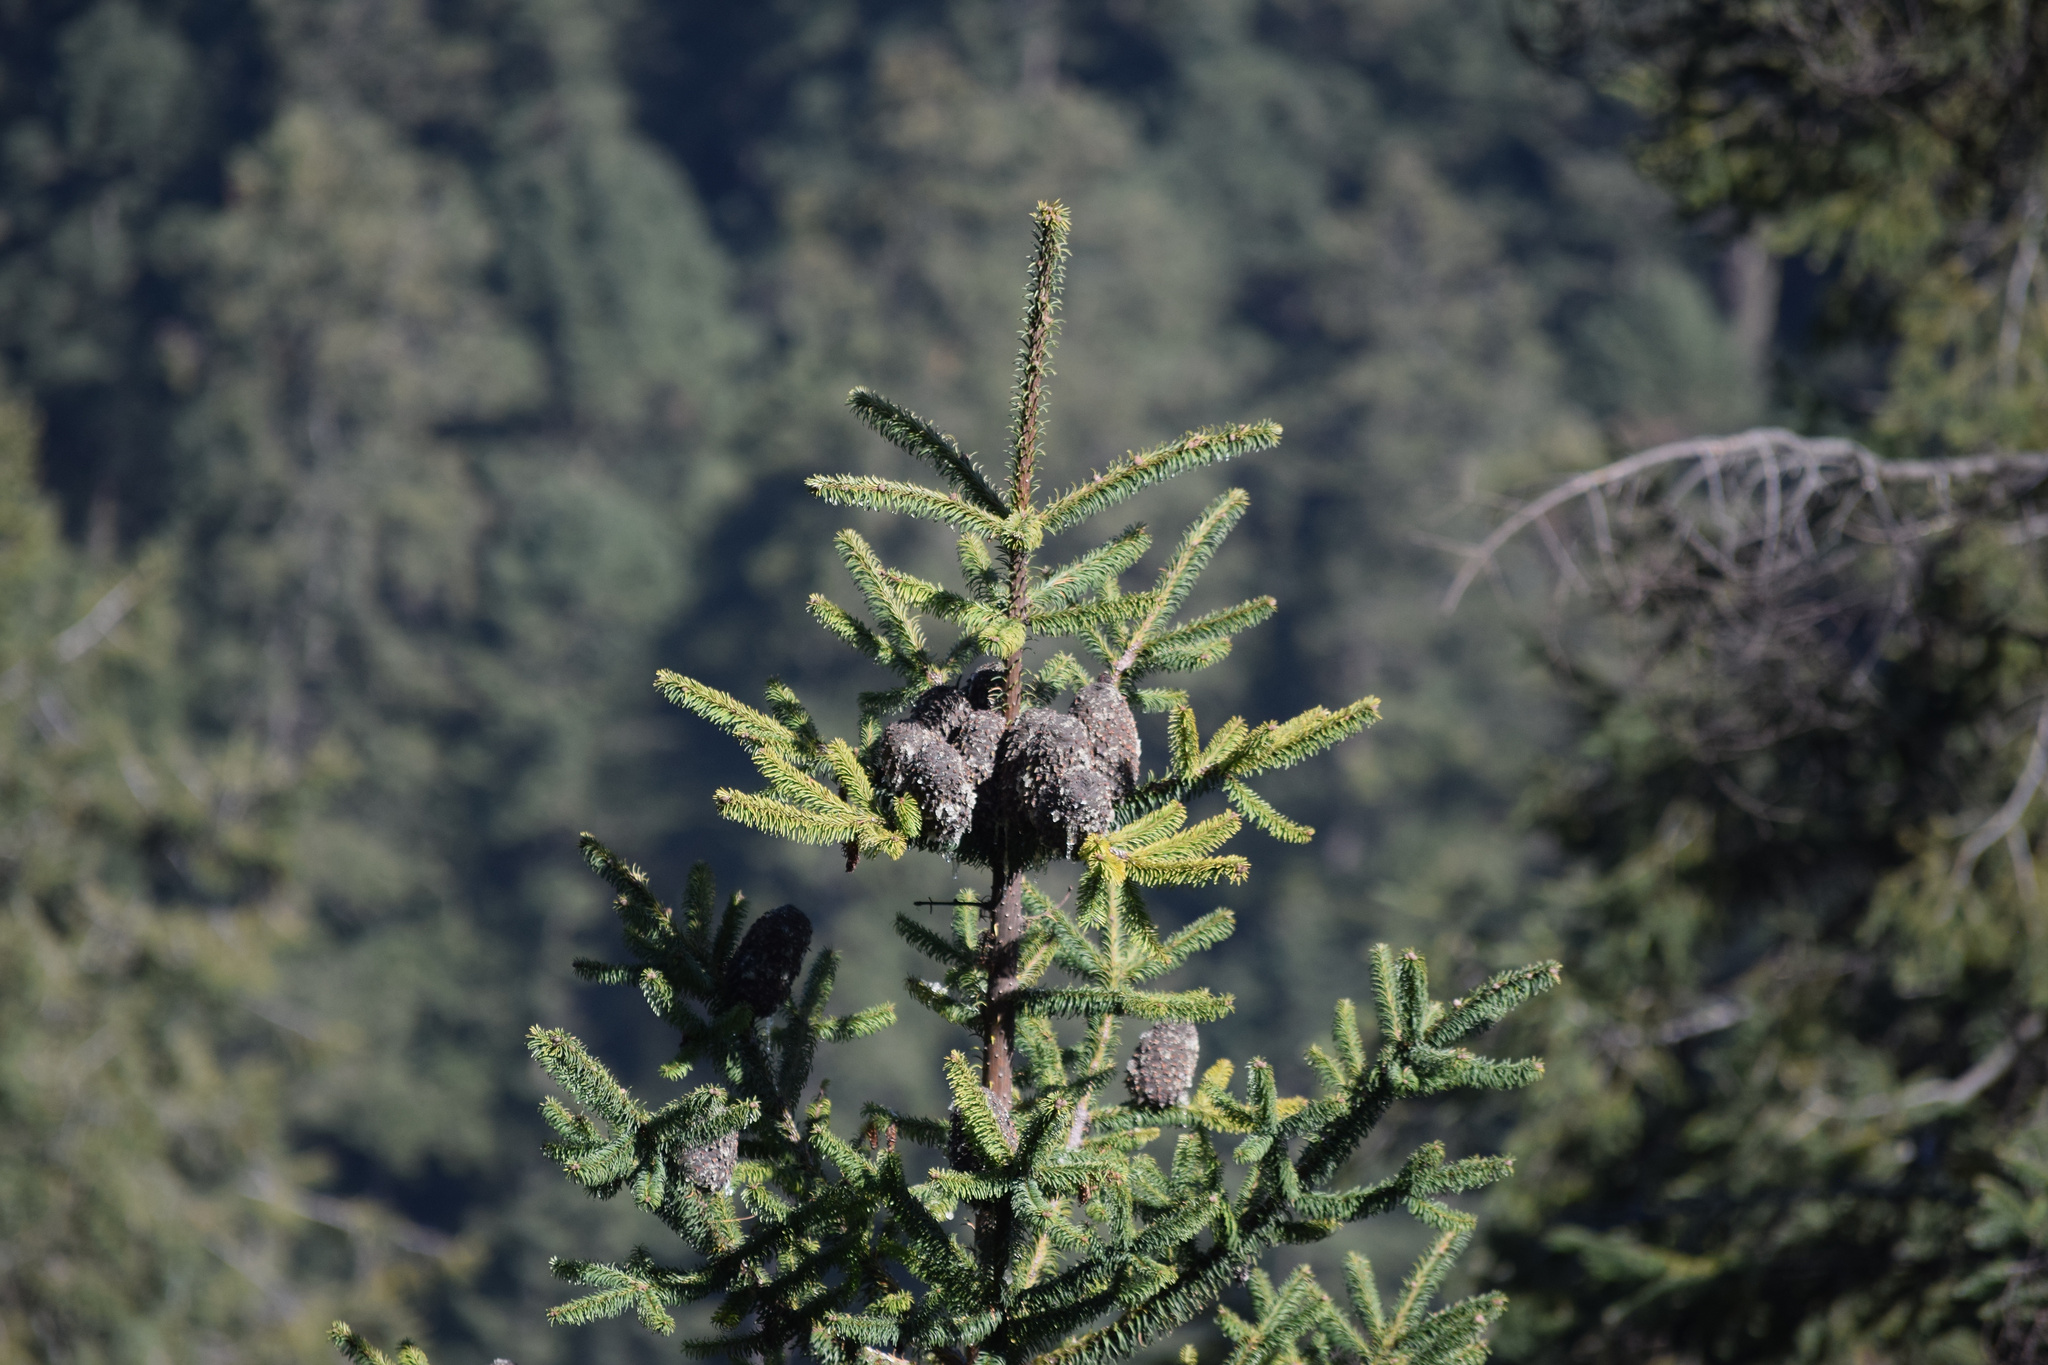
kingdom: Plantae
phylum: Tracheophyta
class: Pinopsida
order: Pinales
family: Pinaceae
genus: Abies
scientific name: Abies religiosa
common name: Sacred fir
